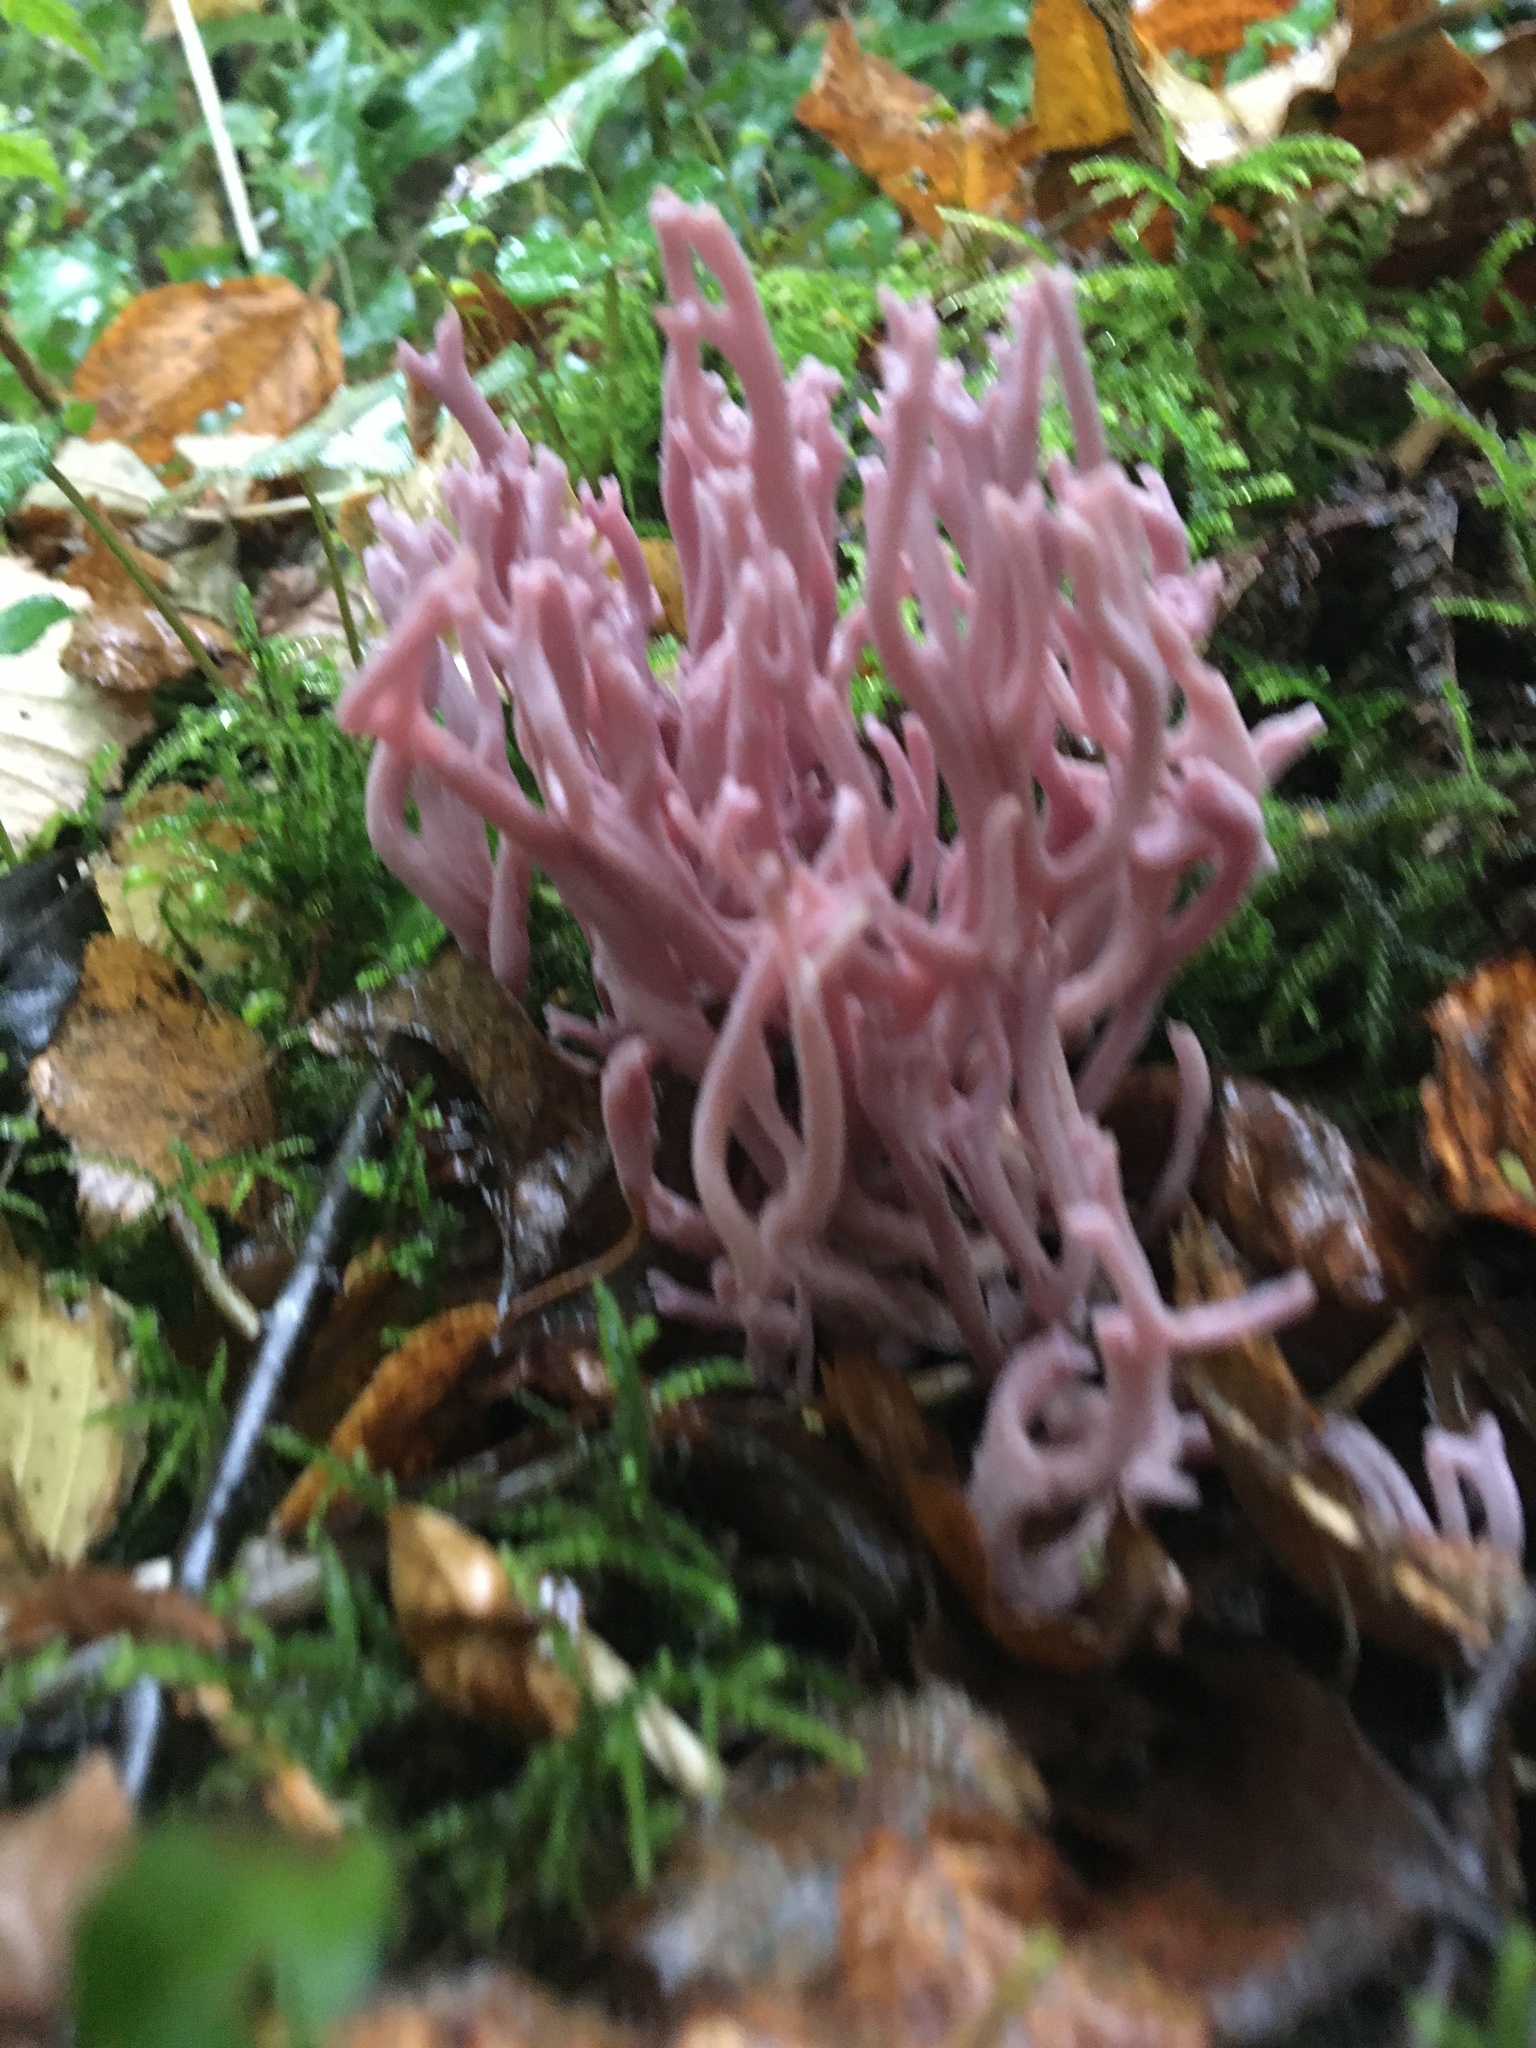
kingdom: Fungi
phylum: Basidiomycota
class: Agaricomycetes
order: Agaricales
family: Clavariaceae
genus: Clavaria
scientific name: Clavaria zollingeri
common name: Violet coral
